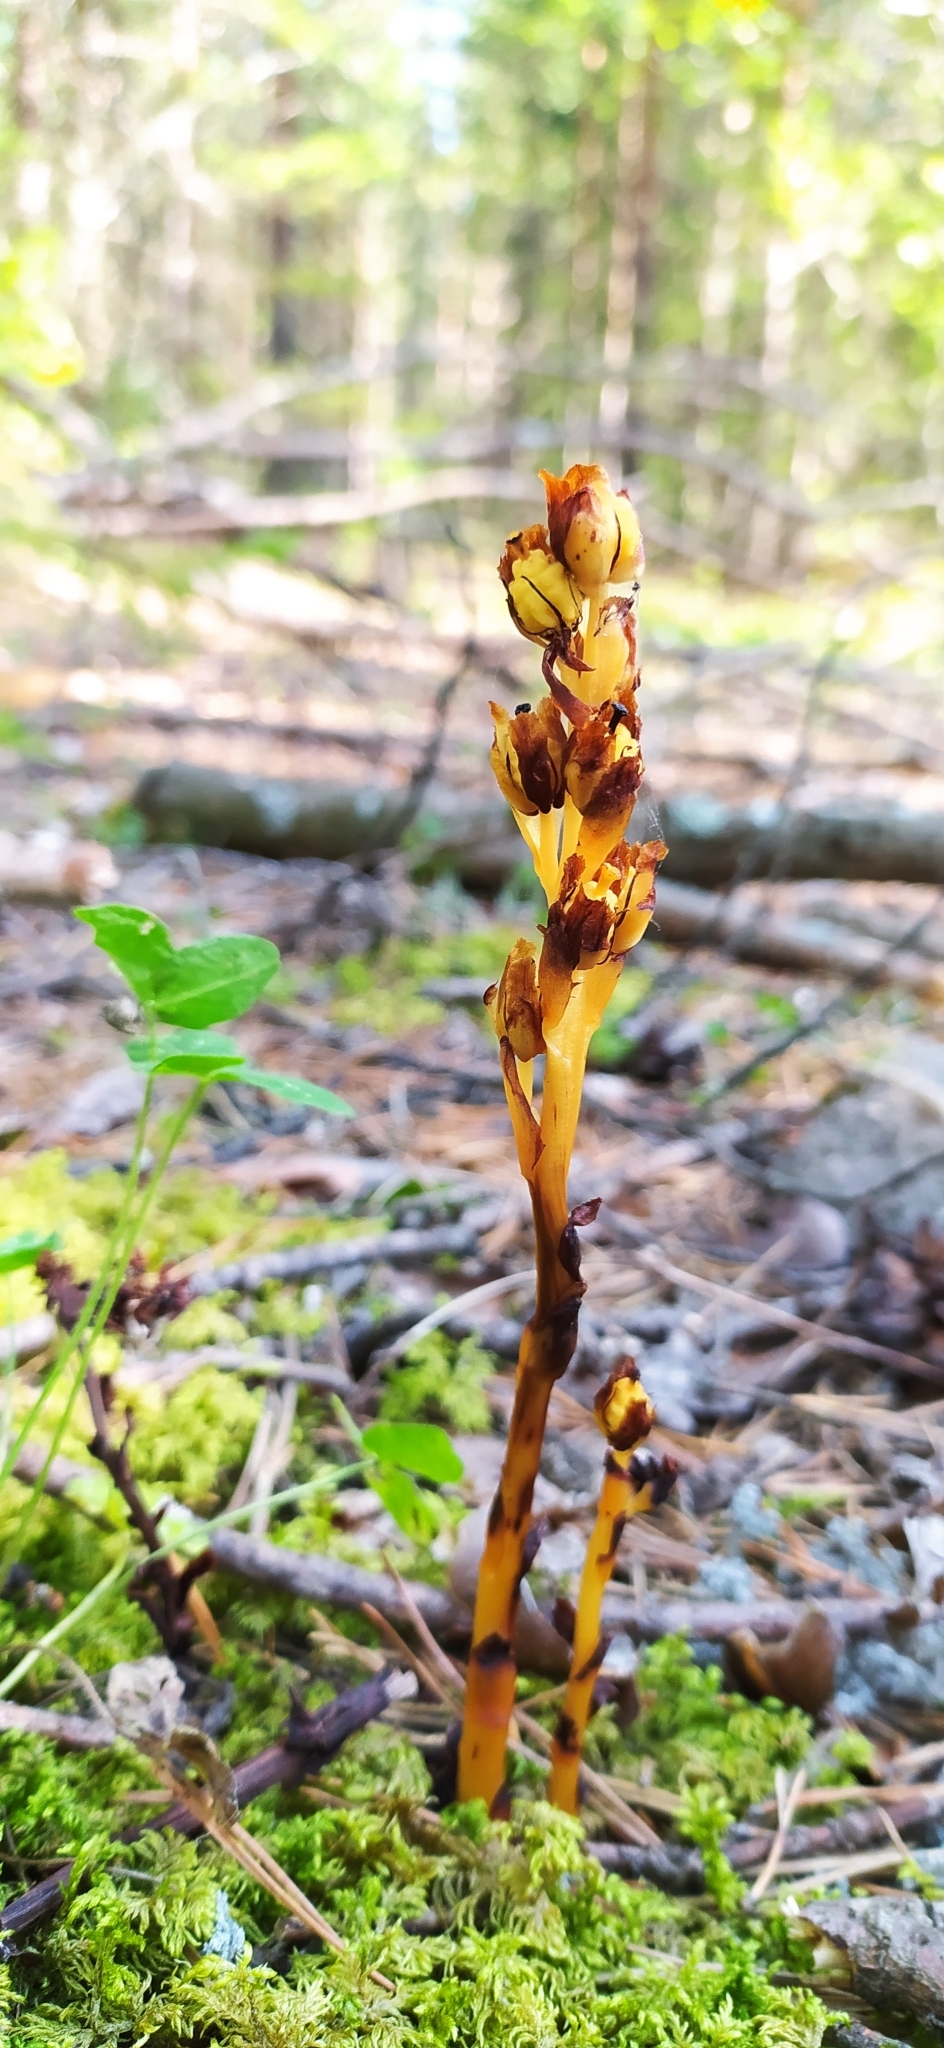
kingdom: Plantae
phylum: Tracheophyta
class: Magnoliopsida
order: Ericales
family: Ericaceae
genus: Hypopitys
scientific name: Hypopitys monotropa
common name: Yellow bird's-nest
